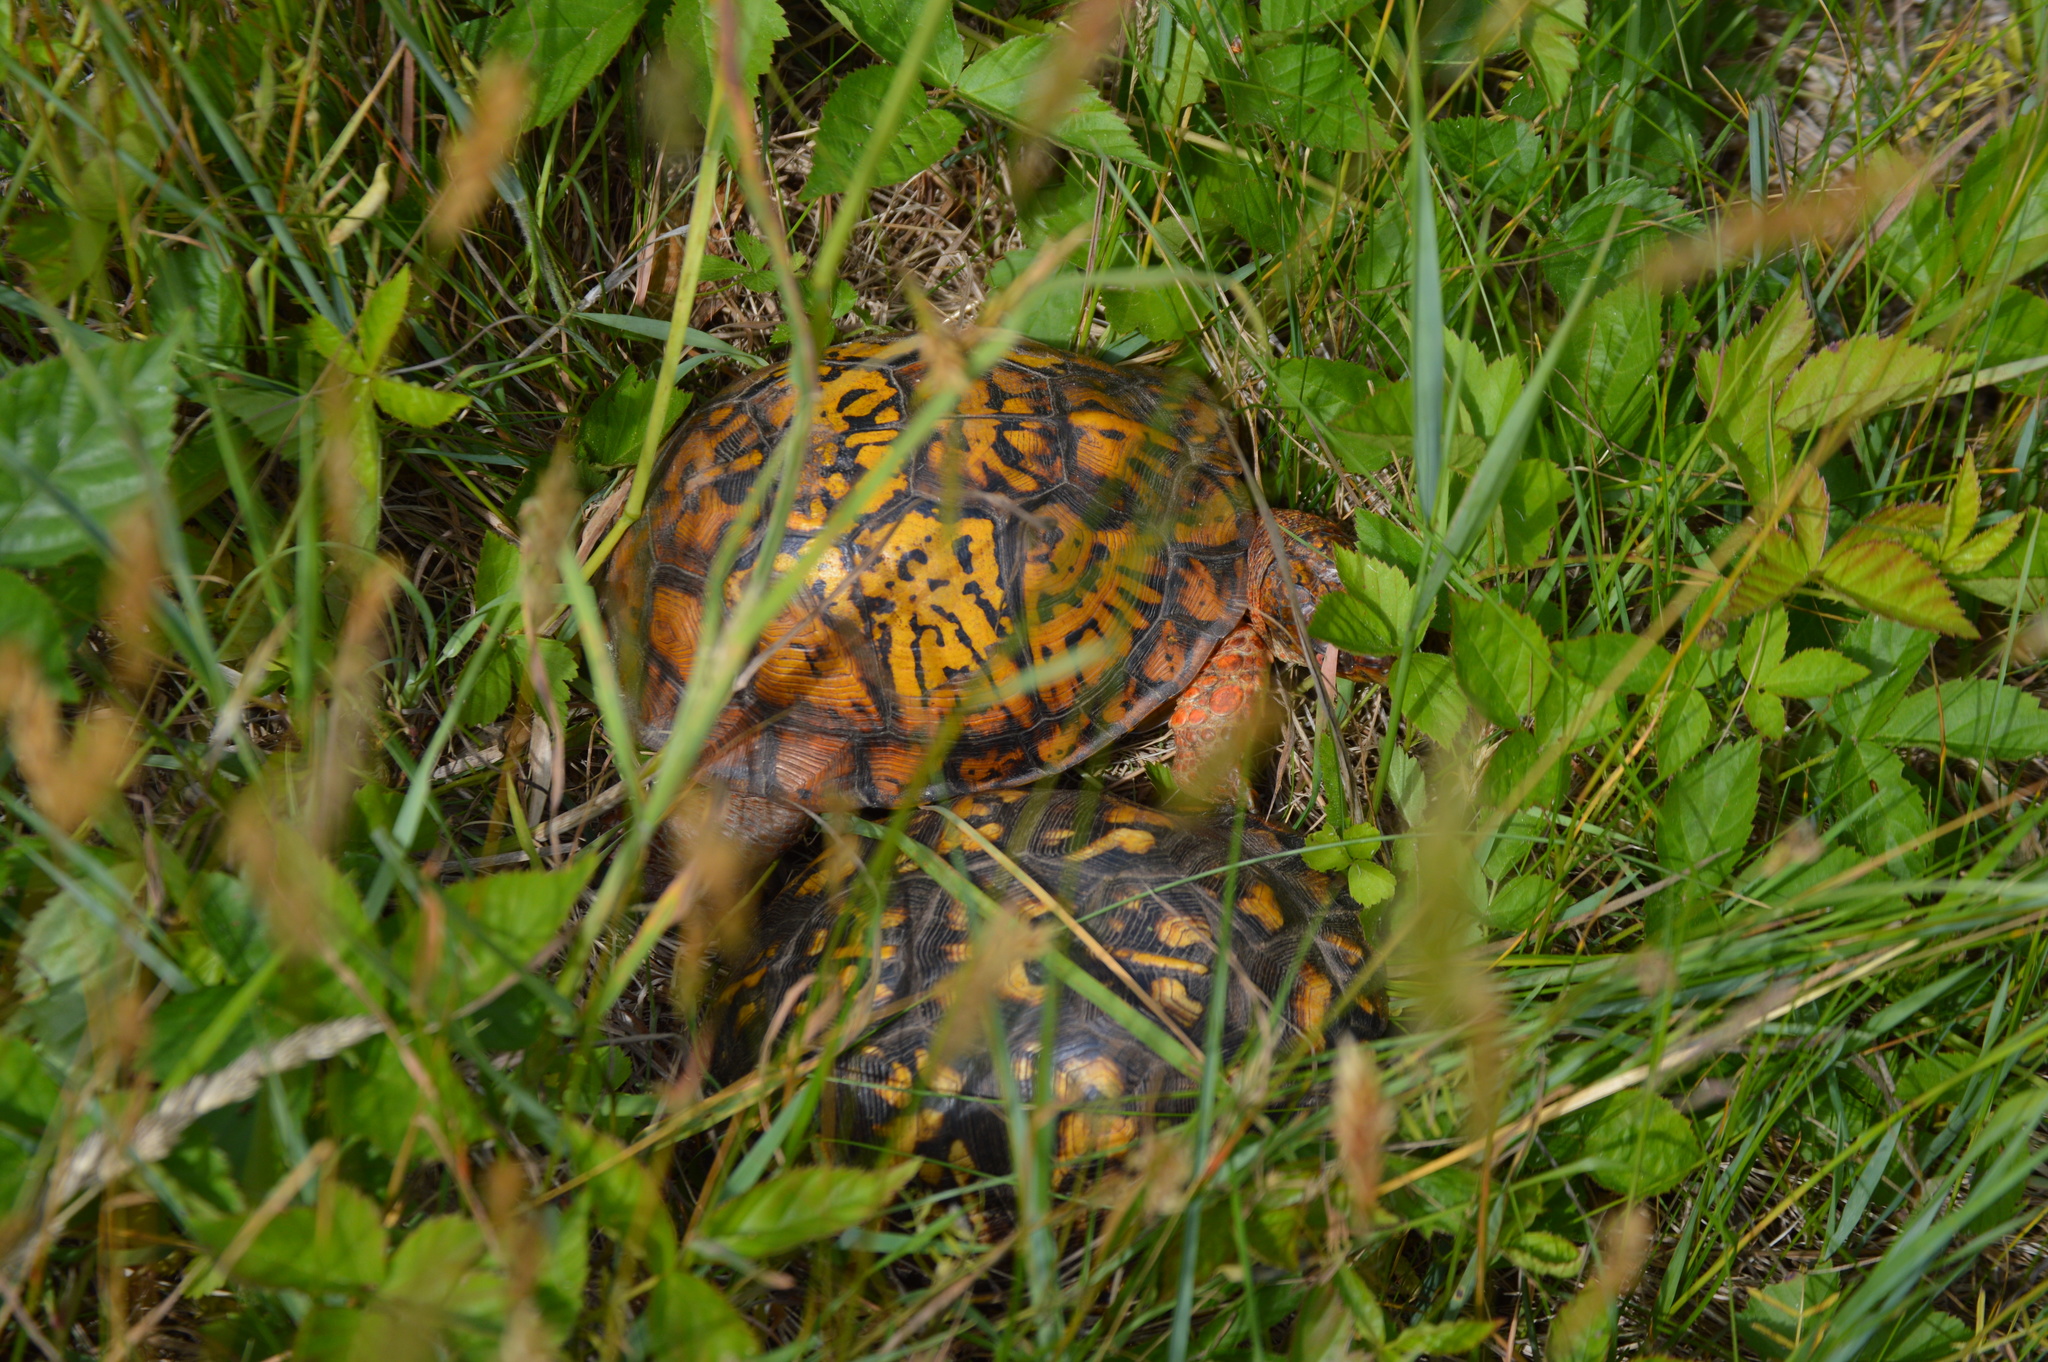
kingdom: Animalia
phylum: Chordata
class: Testudines
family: Emydidae
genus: Terrapene
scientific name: Terrapene carolina
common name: Common box turtle
